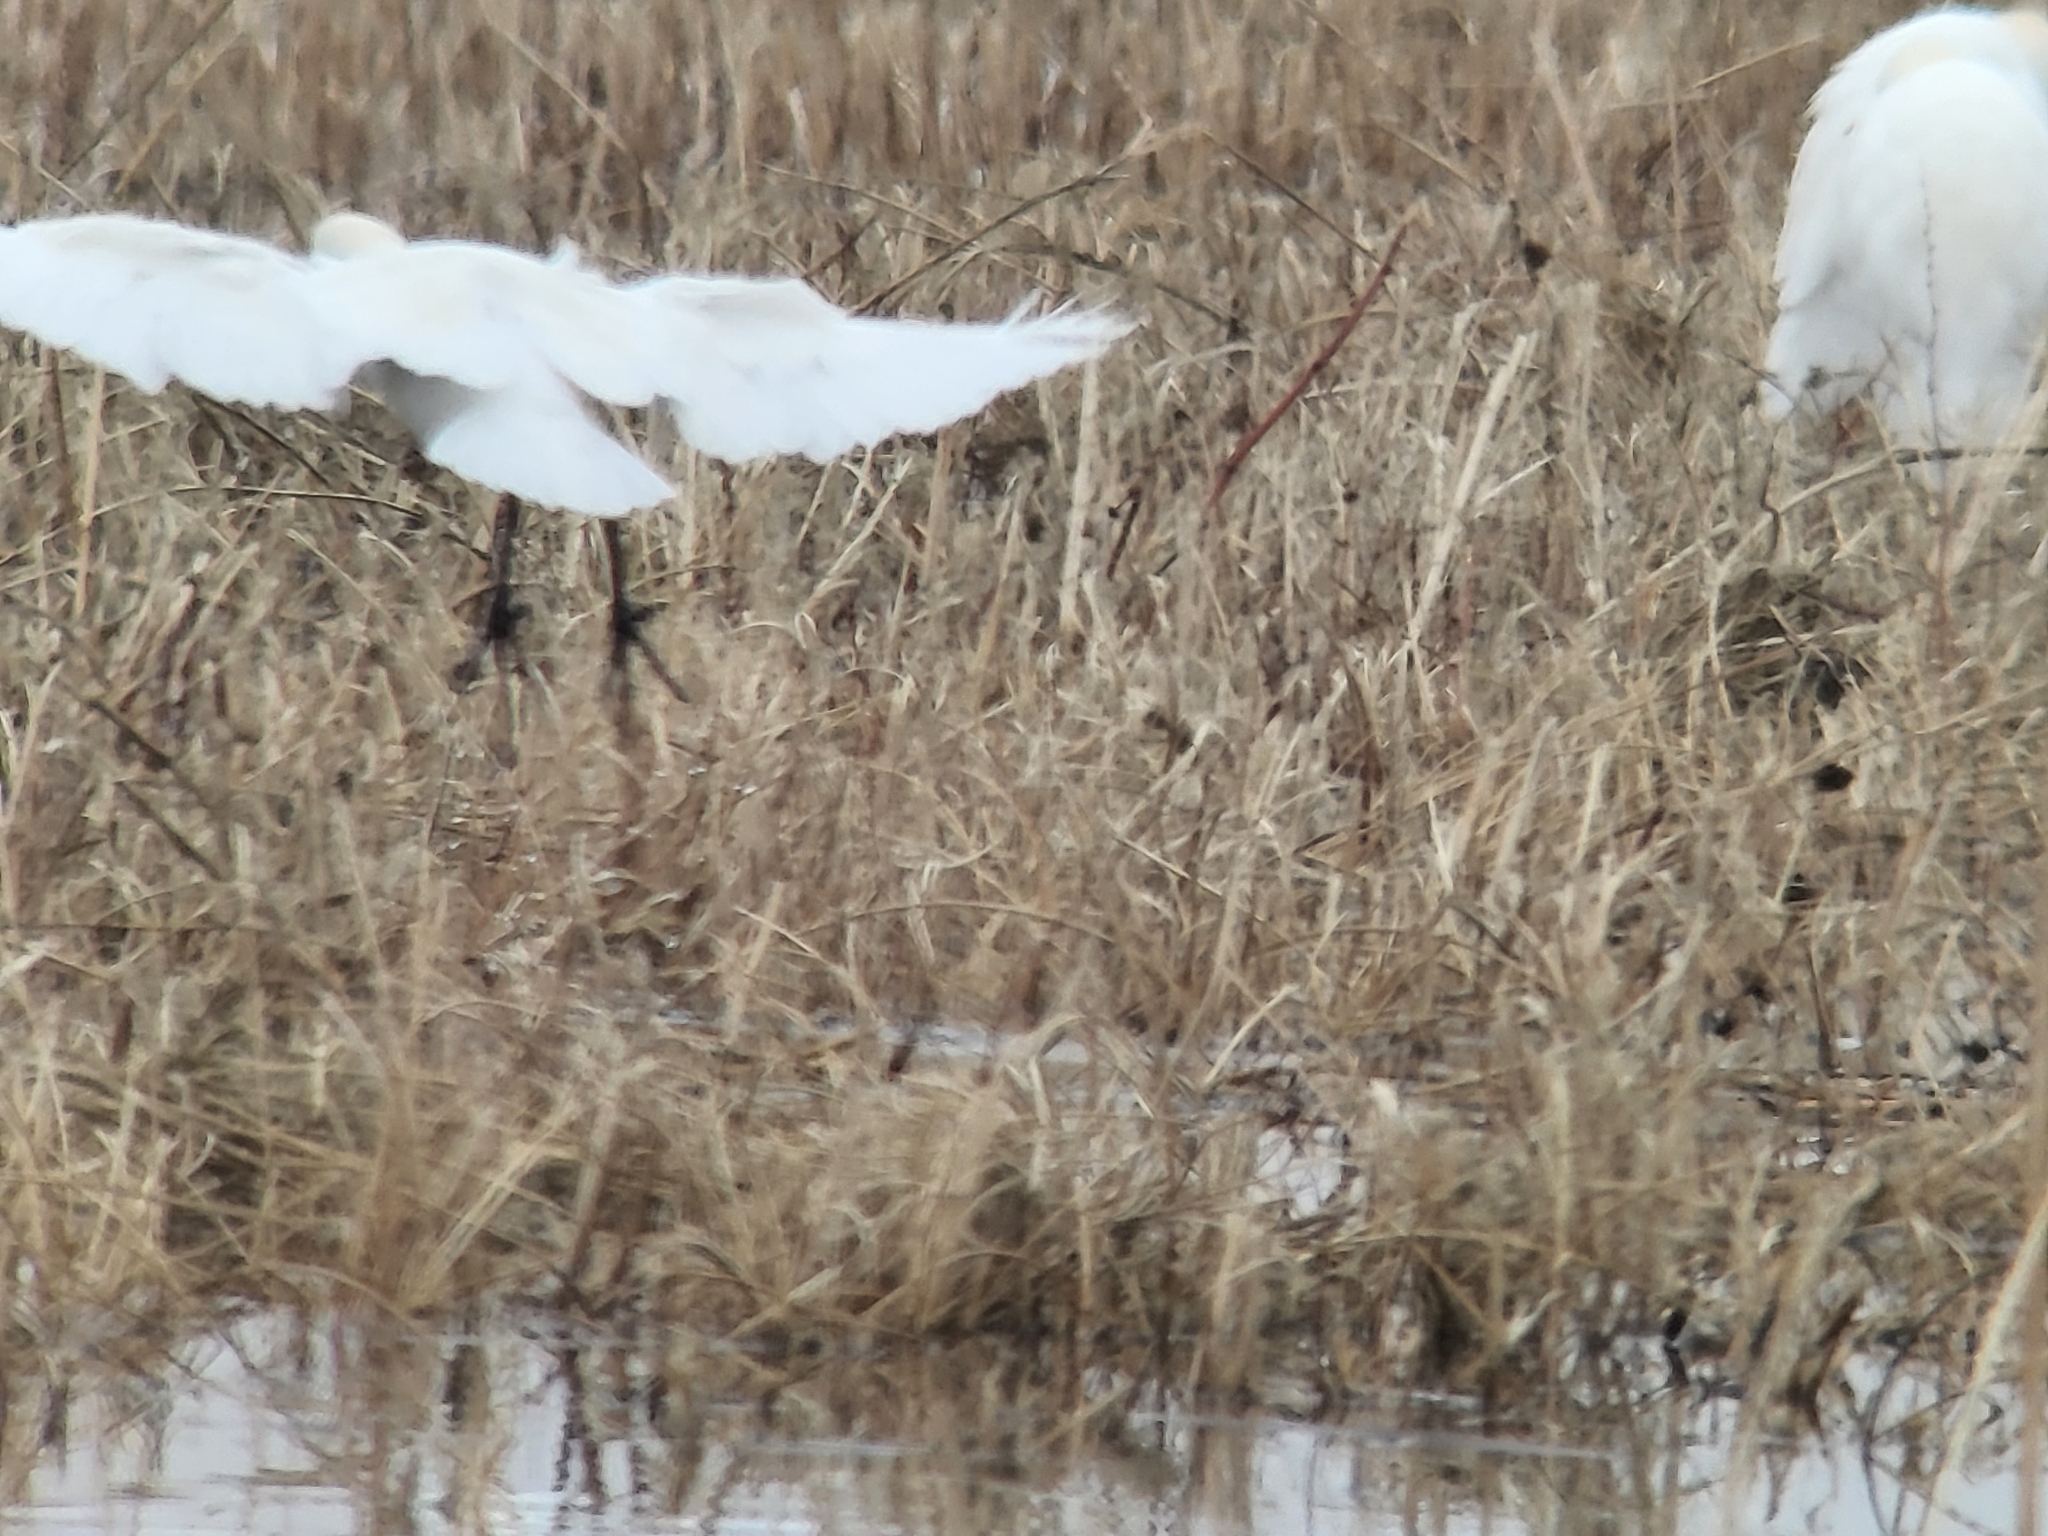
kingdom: Animalia
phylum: Chordata
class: Aves
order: Pelecaniformes
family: Ardeidae
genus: Bubulcus
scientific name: Bubulcus ibis
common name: Cattle egret
